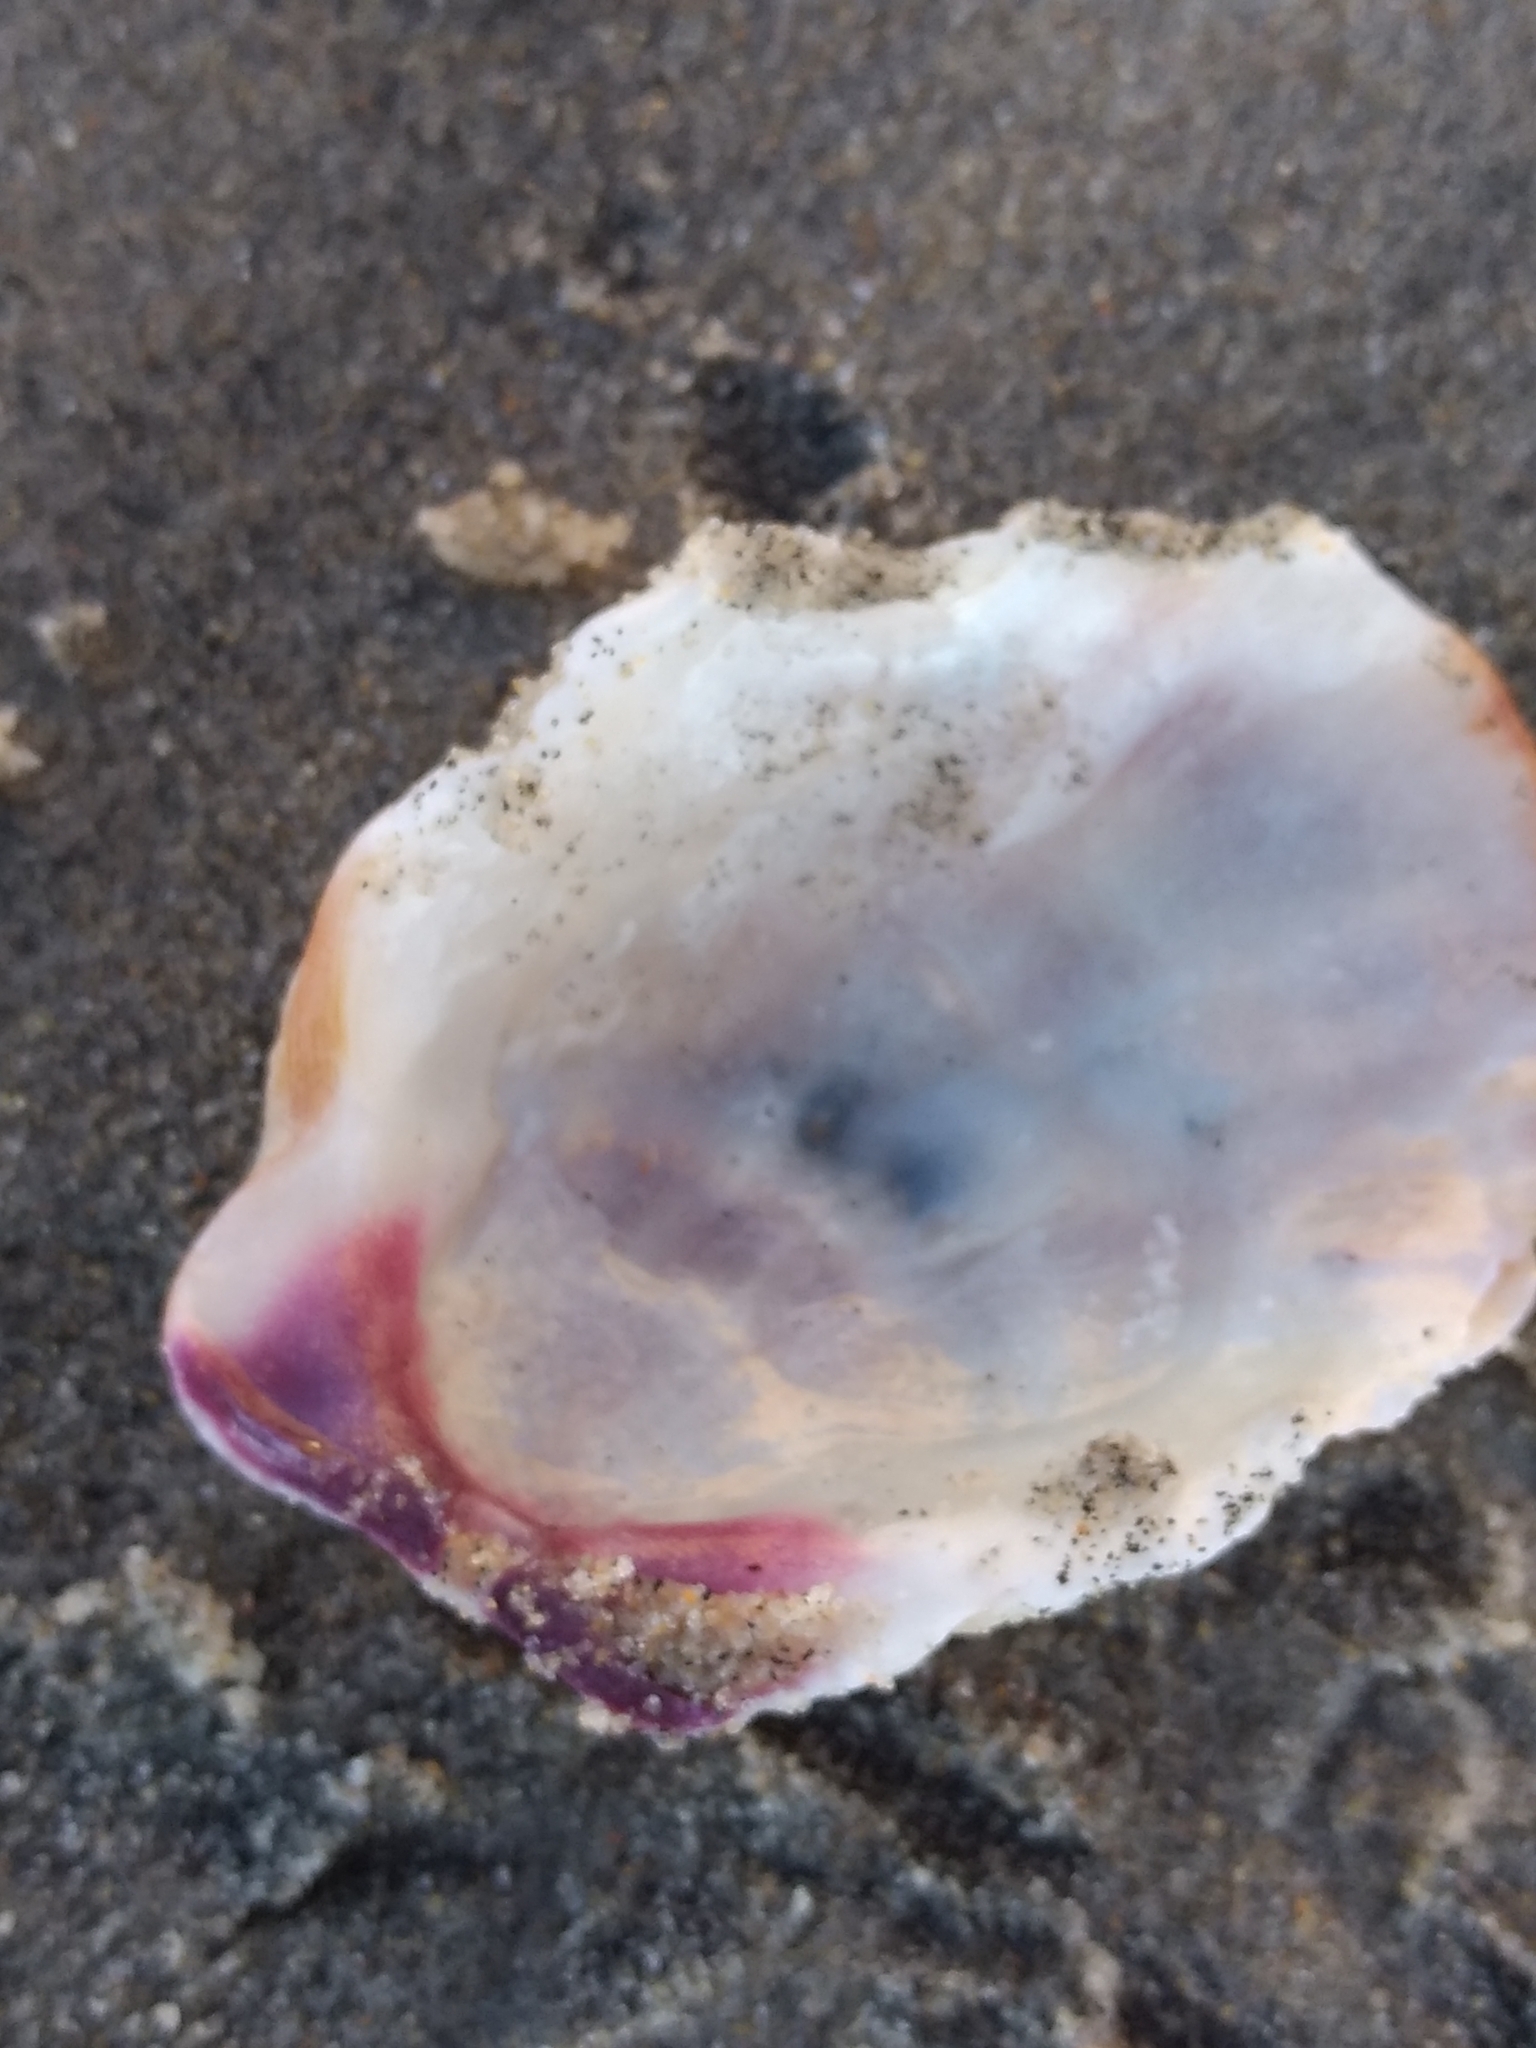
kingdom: Animalia
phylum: Mollusca
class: Bivalvia
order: Pectinida
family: Pectinidae
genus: Crassadoma
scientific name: Crassadoma gigantea
